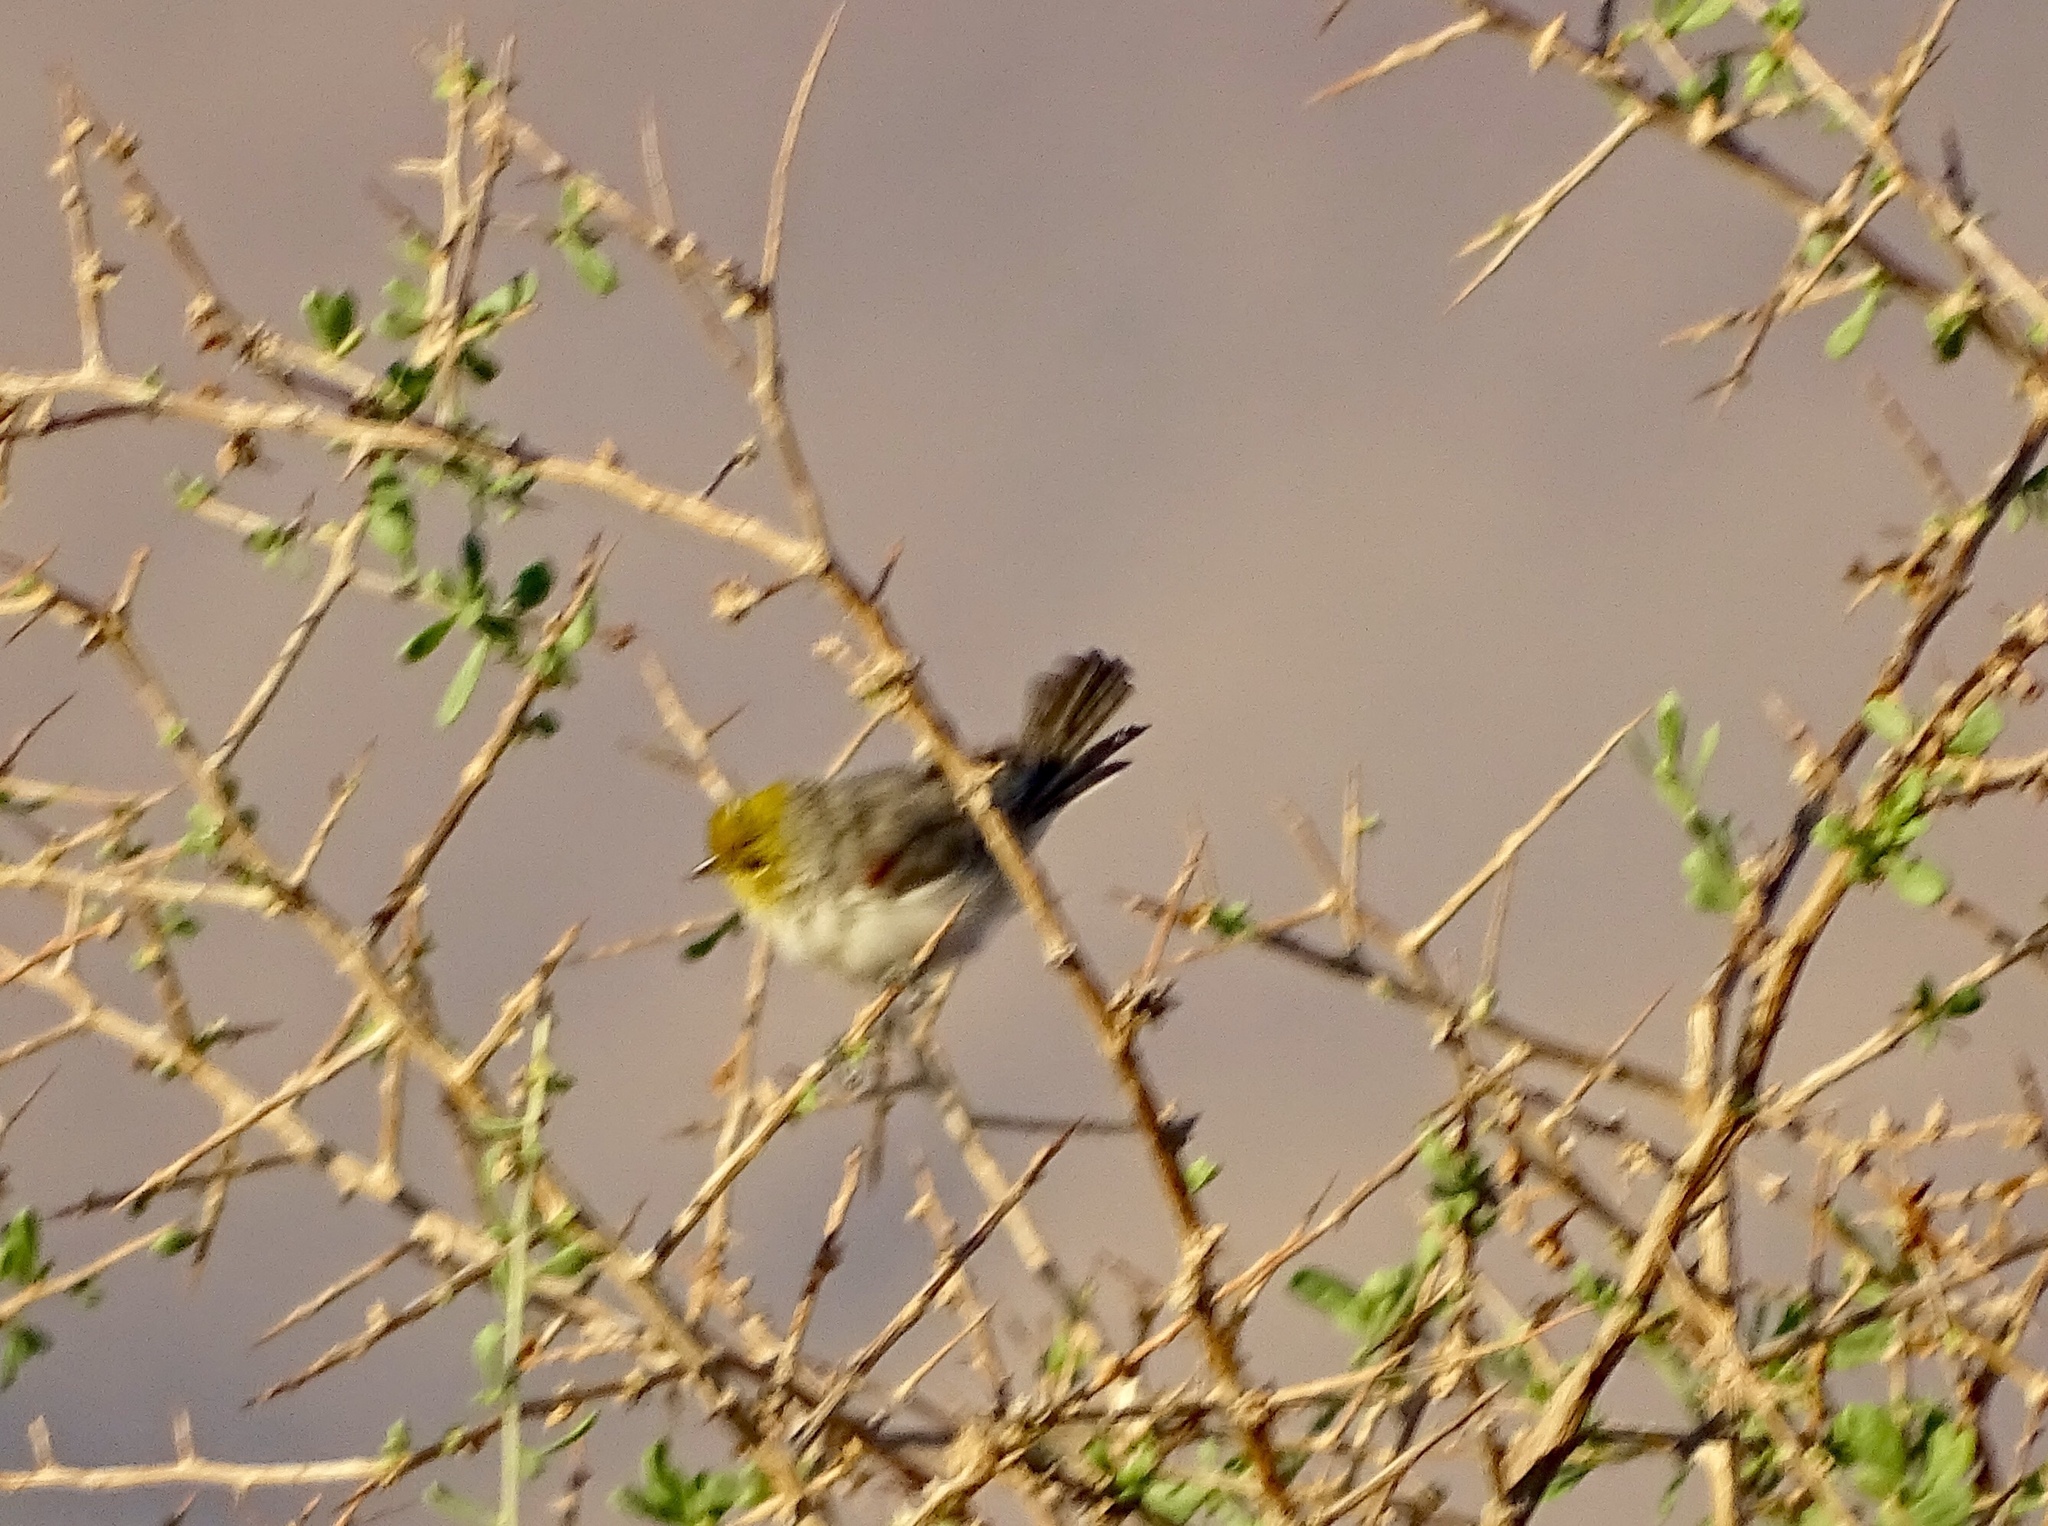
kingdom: Animalia
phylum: Chordata
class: Aves
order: Passeriformes
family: Remizidae
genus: Auriparus
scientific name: Auriparus flaviceps
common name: Verdin
